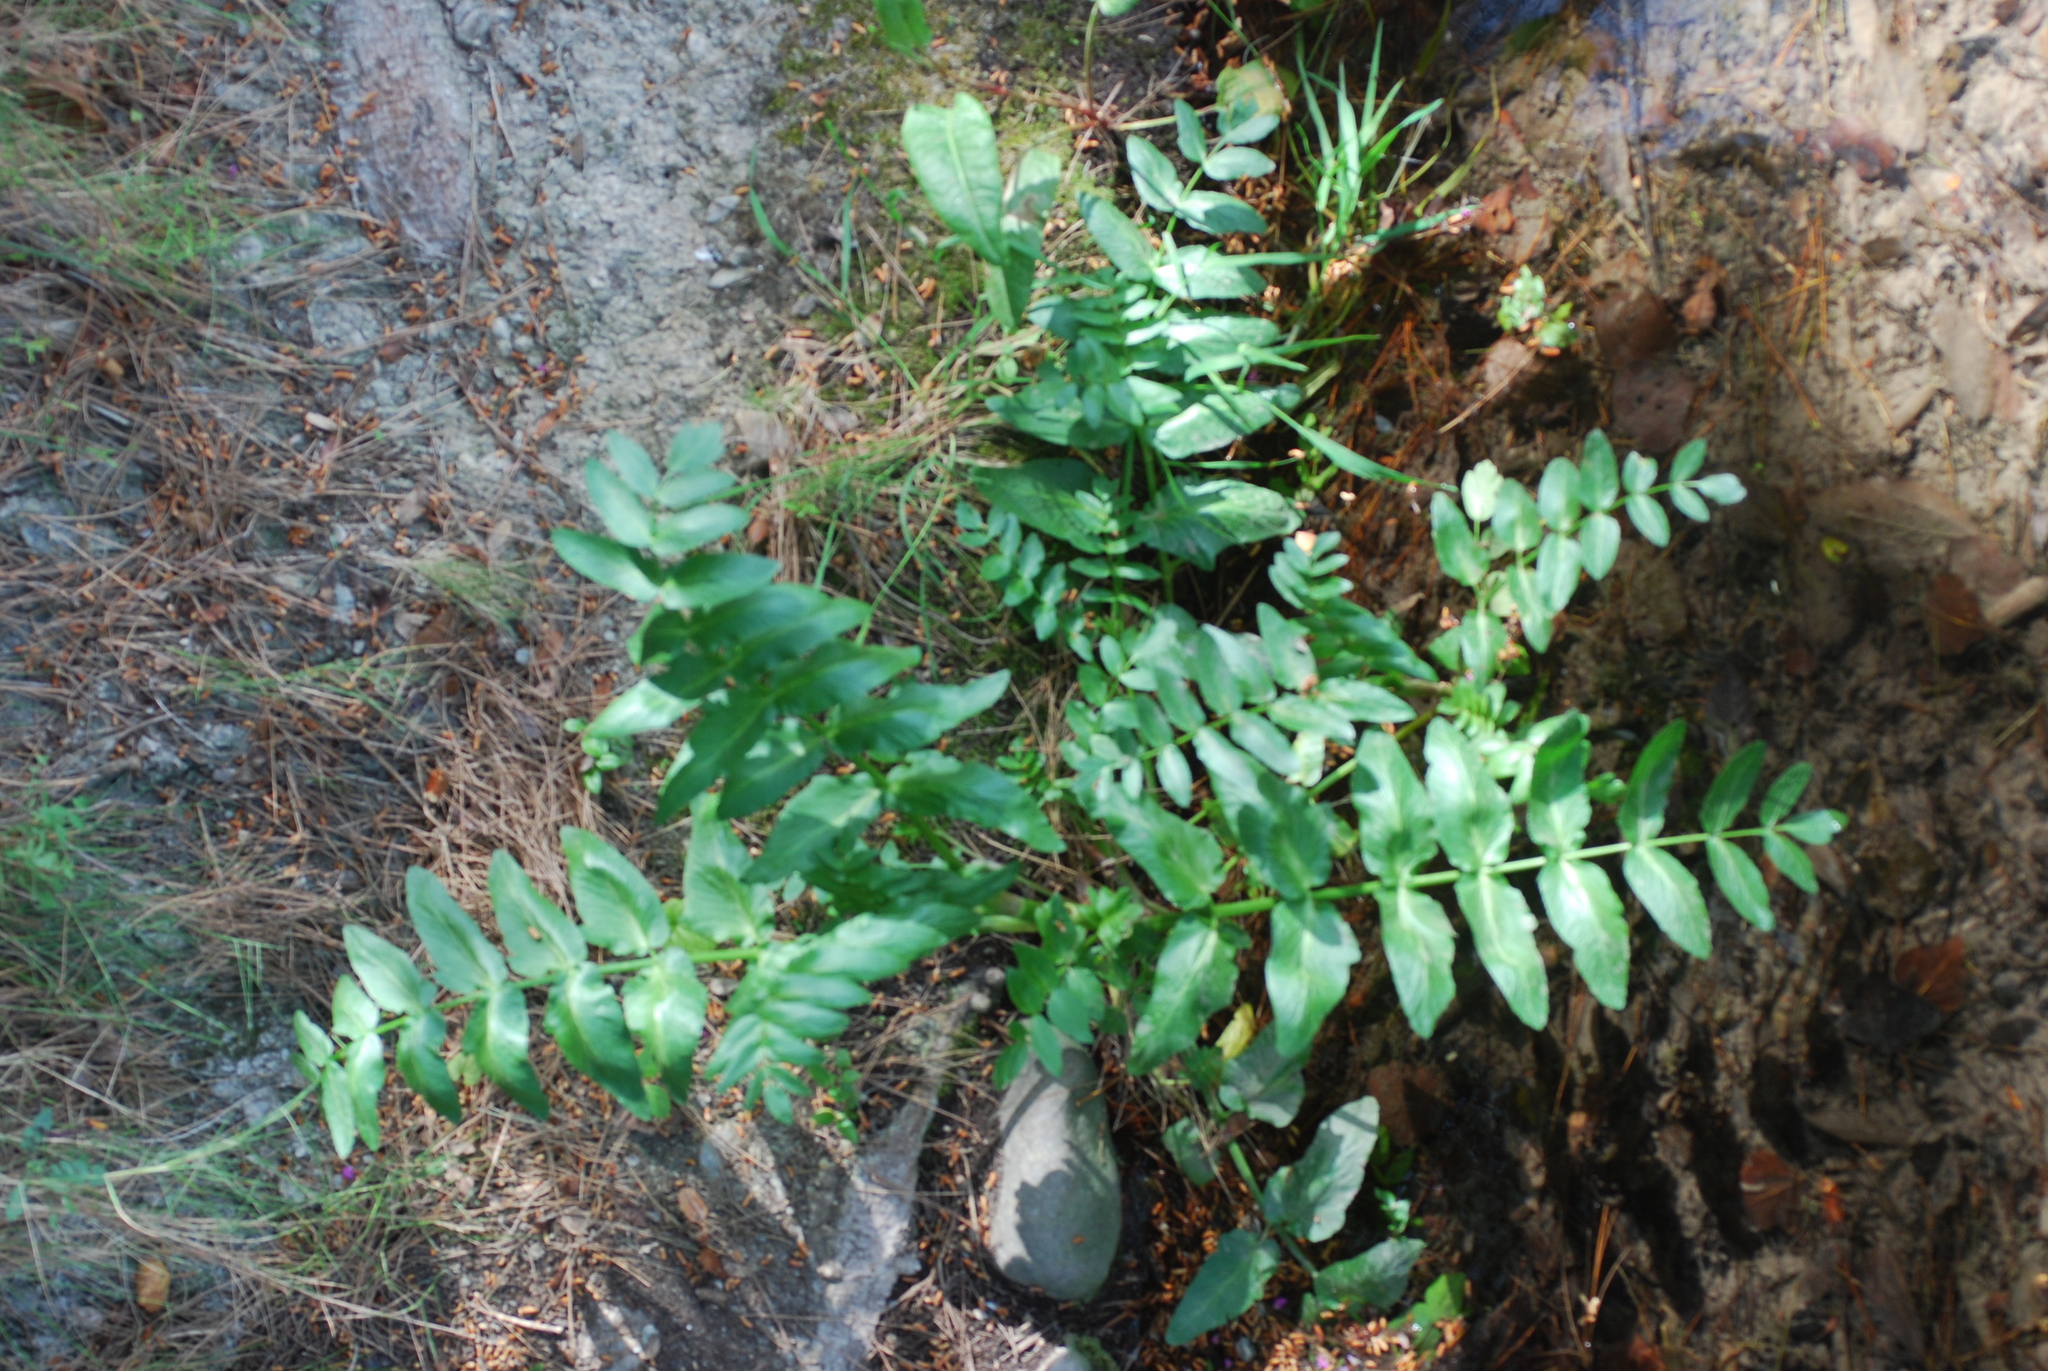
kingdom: Plantae
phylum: Tracheophyta
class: Magnoliopsida
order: Apiales
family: Apiaceae
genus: Helosciadium
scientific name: Helosciadium nodiflorum
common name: Fool's-watercress
